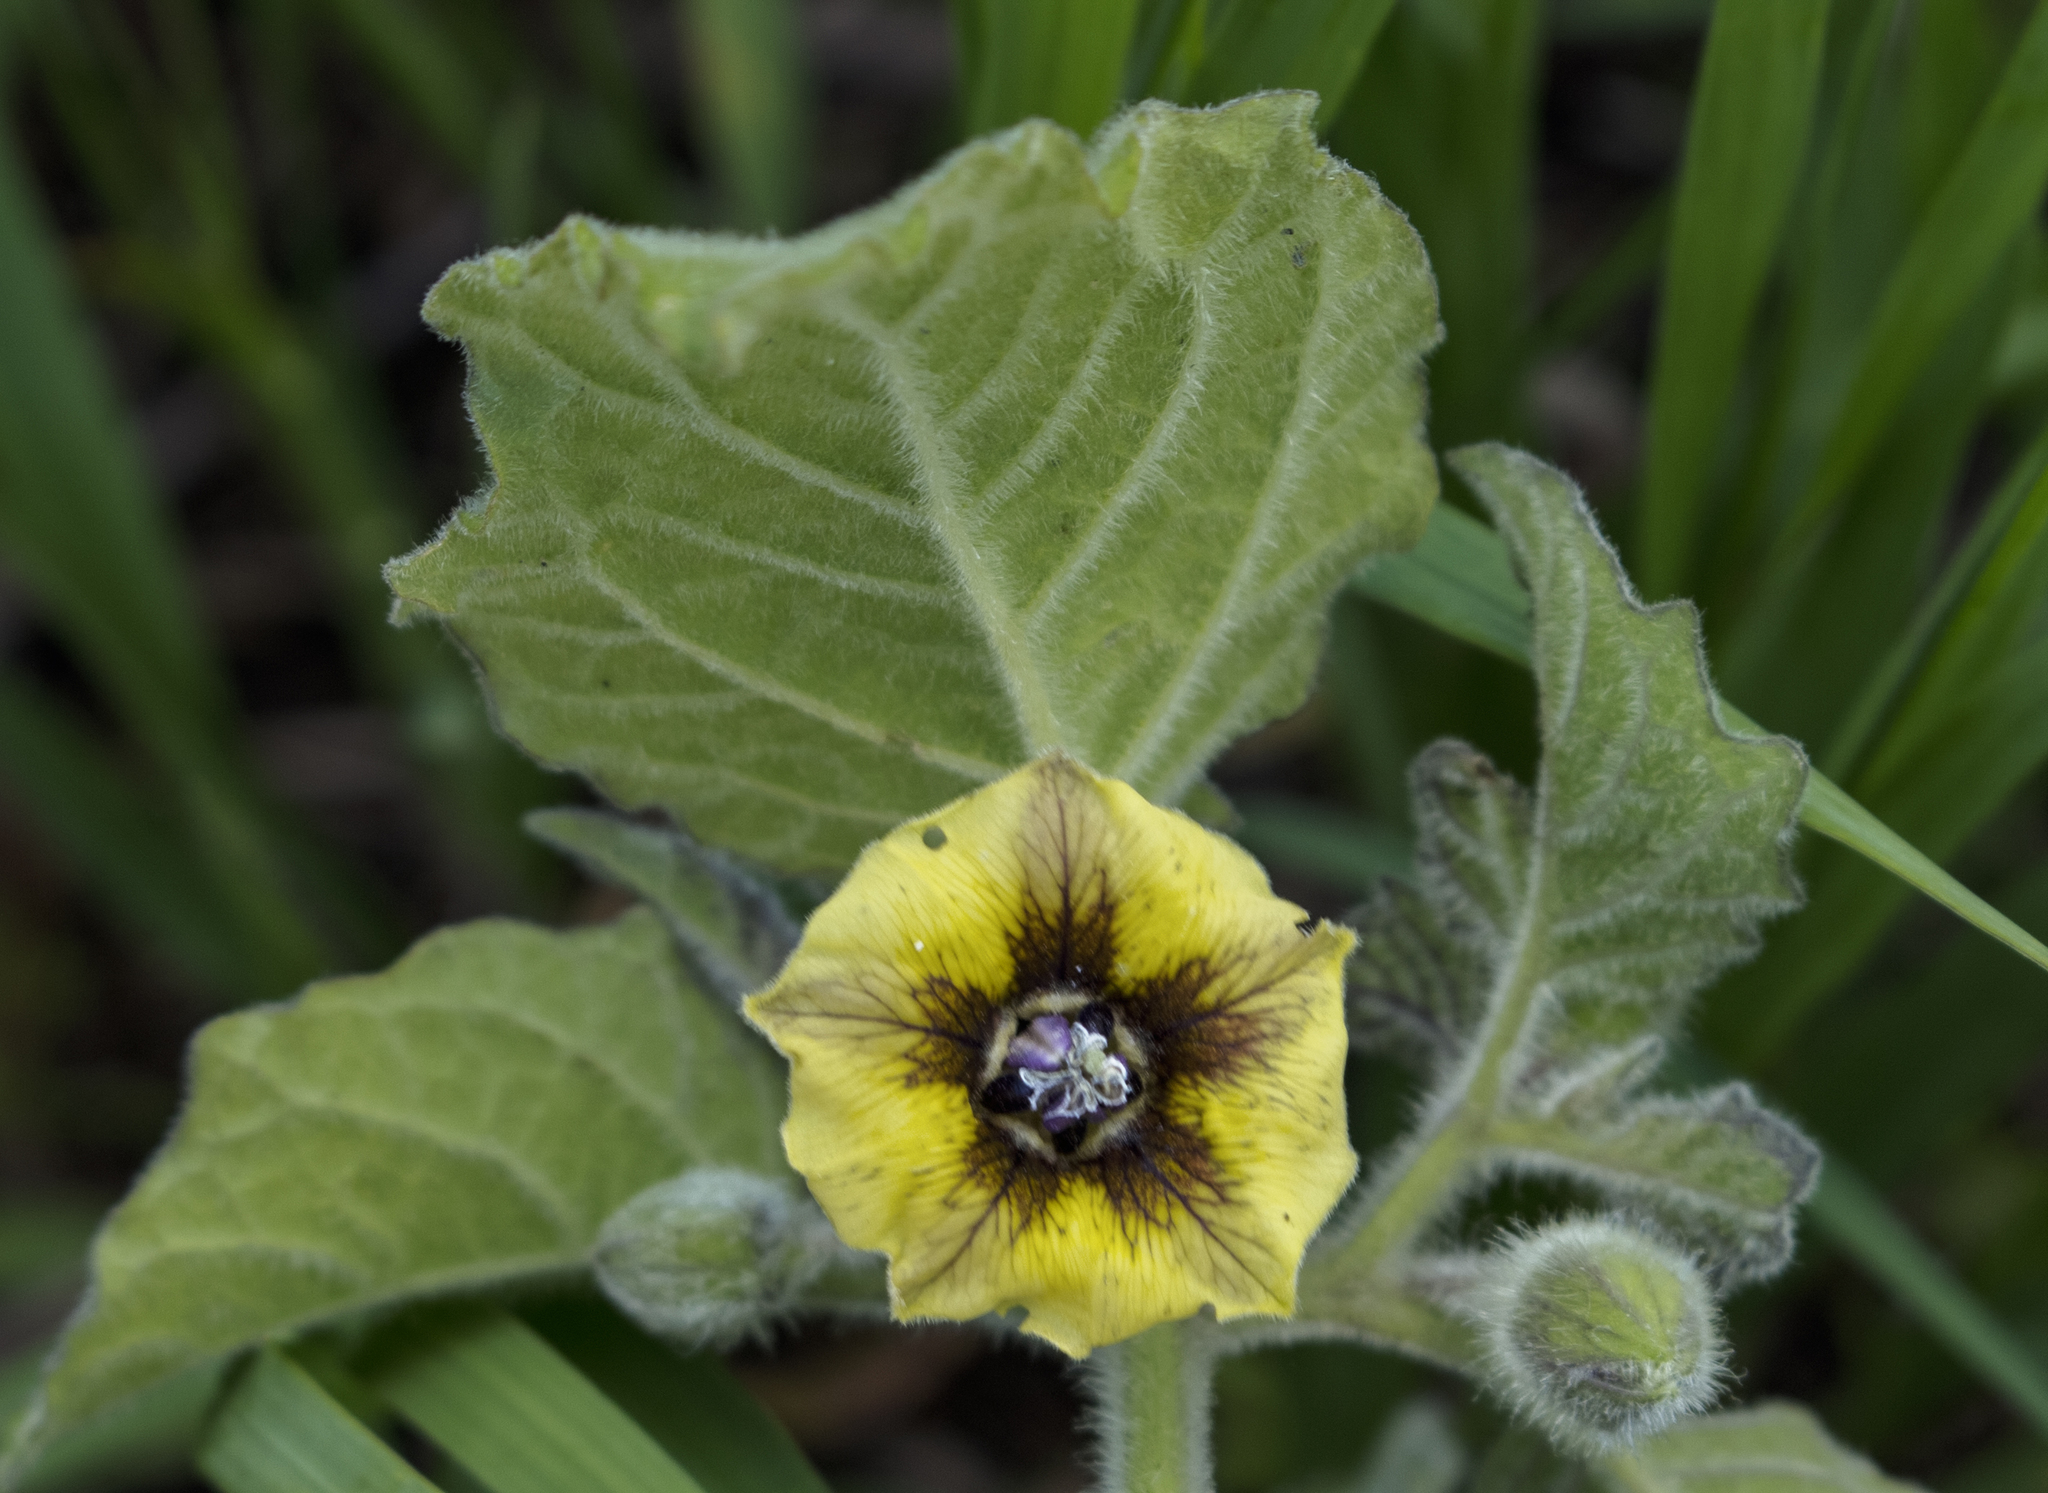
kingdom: Plantae
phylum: Tracheophyta
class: Magnoliopsida
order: Solanales
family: Solanaceae
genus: Physalis
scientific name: Physalis heterophylla
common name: Clammy ground-cherry
